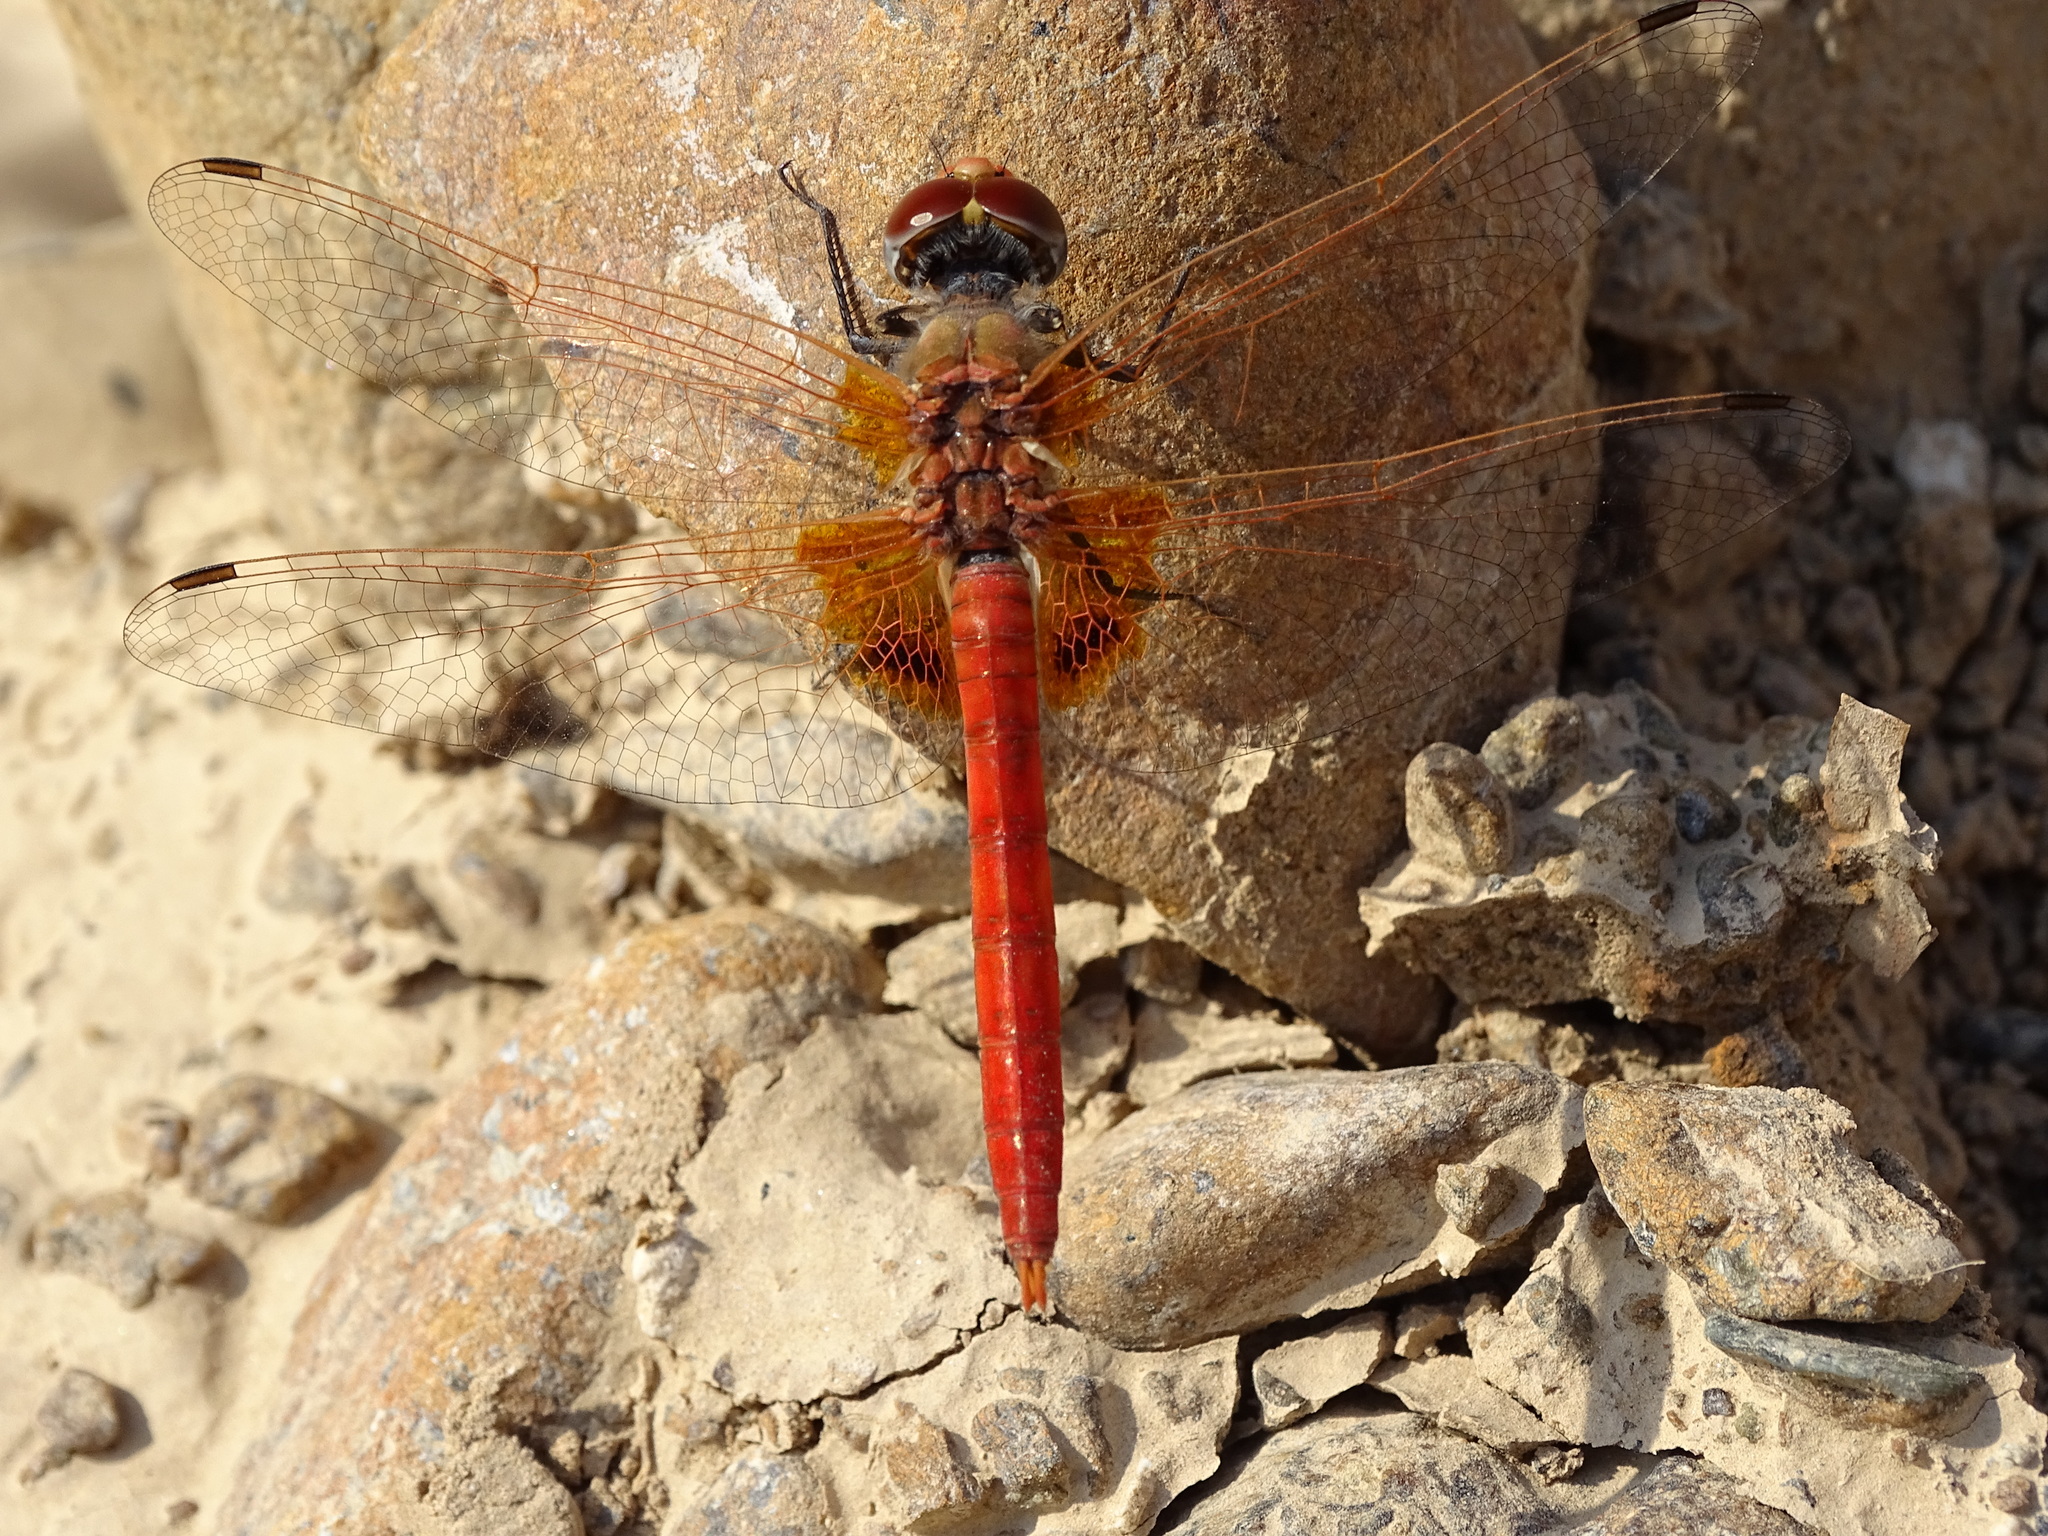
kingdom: Animalia
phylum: Arthropoda
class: Insecta
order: Odonata
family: Libellulidae
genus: Urothemis
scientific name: Urothemis thomasi
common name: Desert basker
